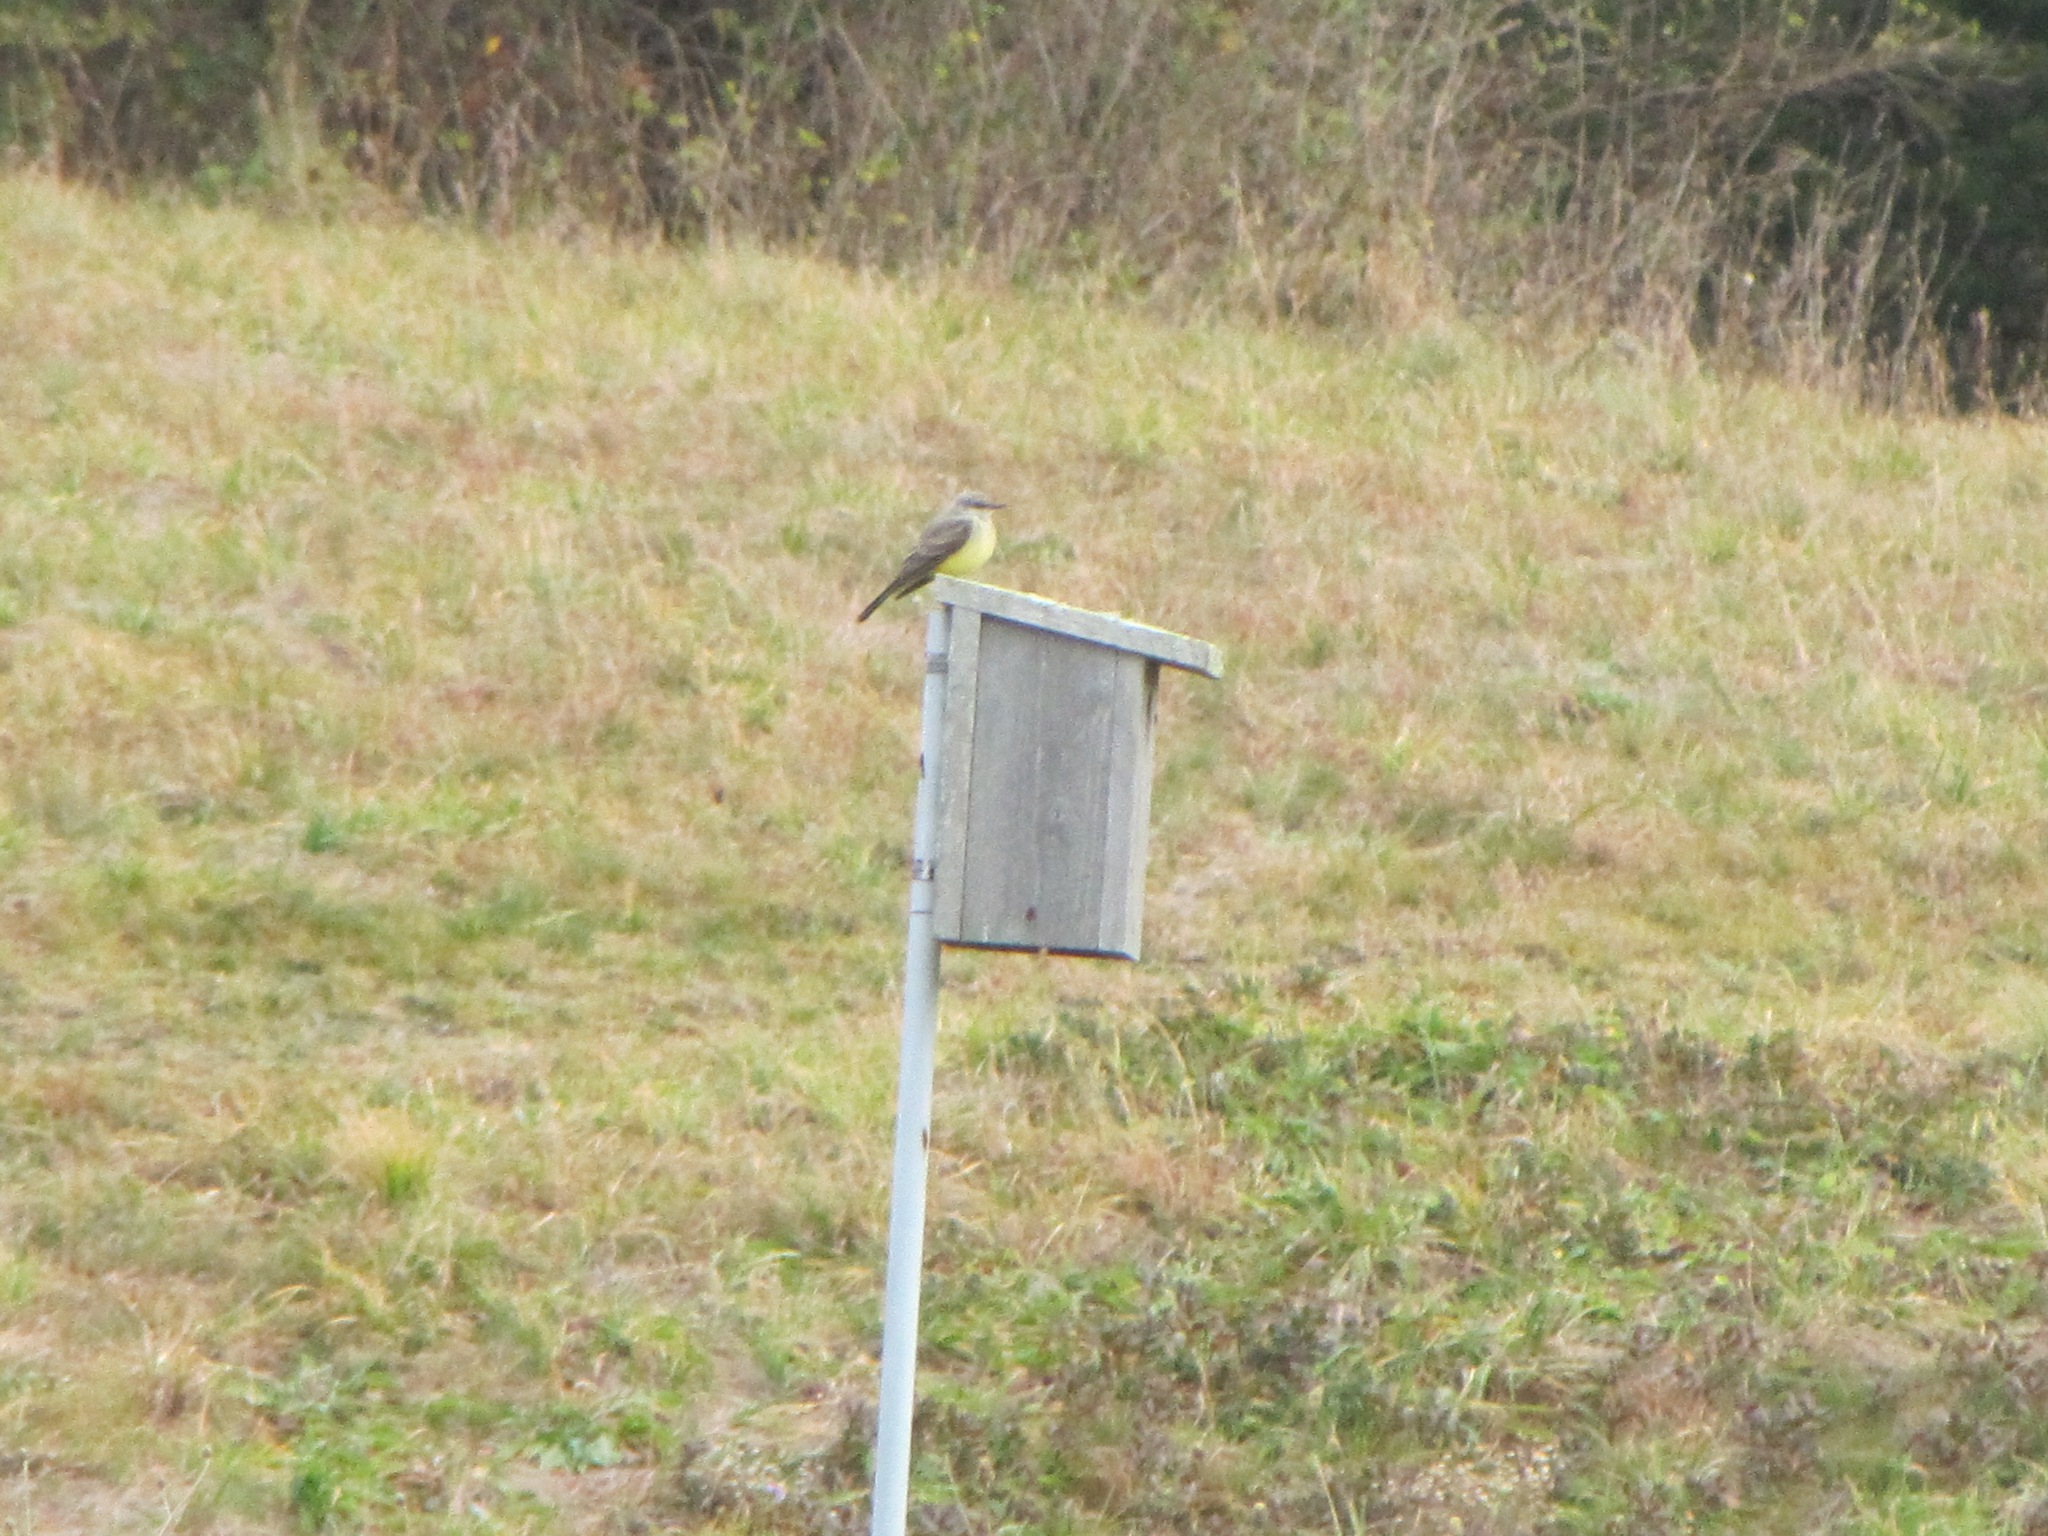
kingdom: Animalia
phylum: Chordata
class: Aves
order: Passeriformes
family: Tyrannidae
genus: Tyrannus
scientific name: Tyrannus verticalis
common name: Western kingbird
